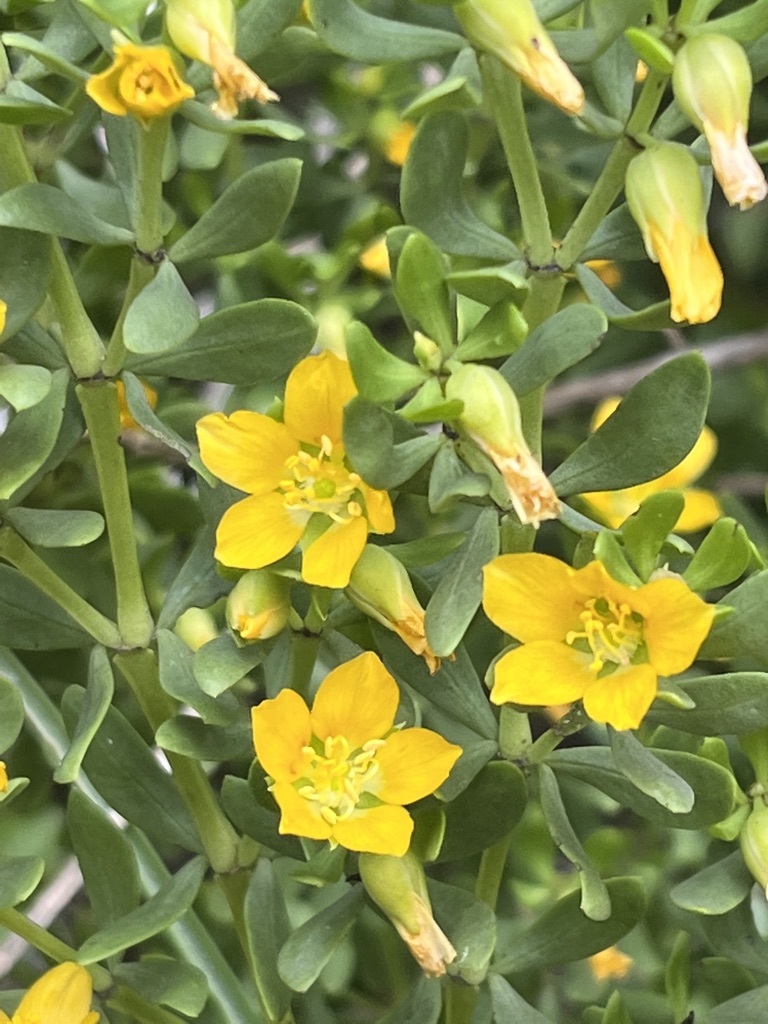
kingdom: Plantae
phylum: Tracheophyta
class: Magnoliopsida
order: Zygophyllales
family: Zygophyllaceae
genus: Roepera
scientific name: Roepera fuscata
